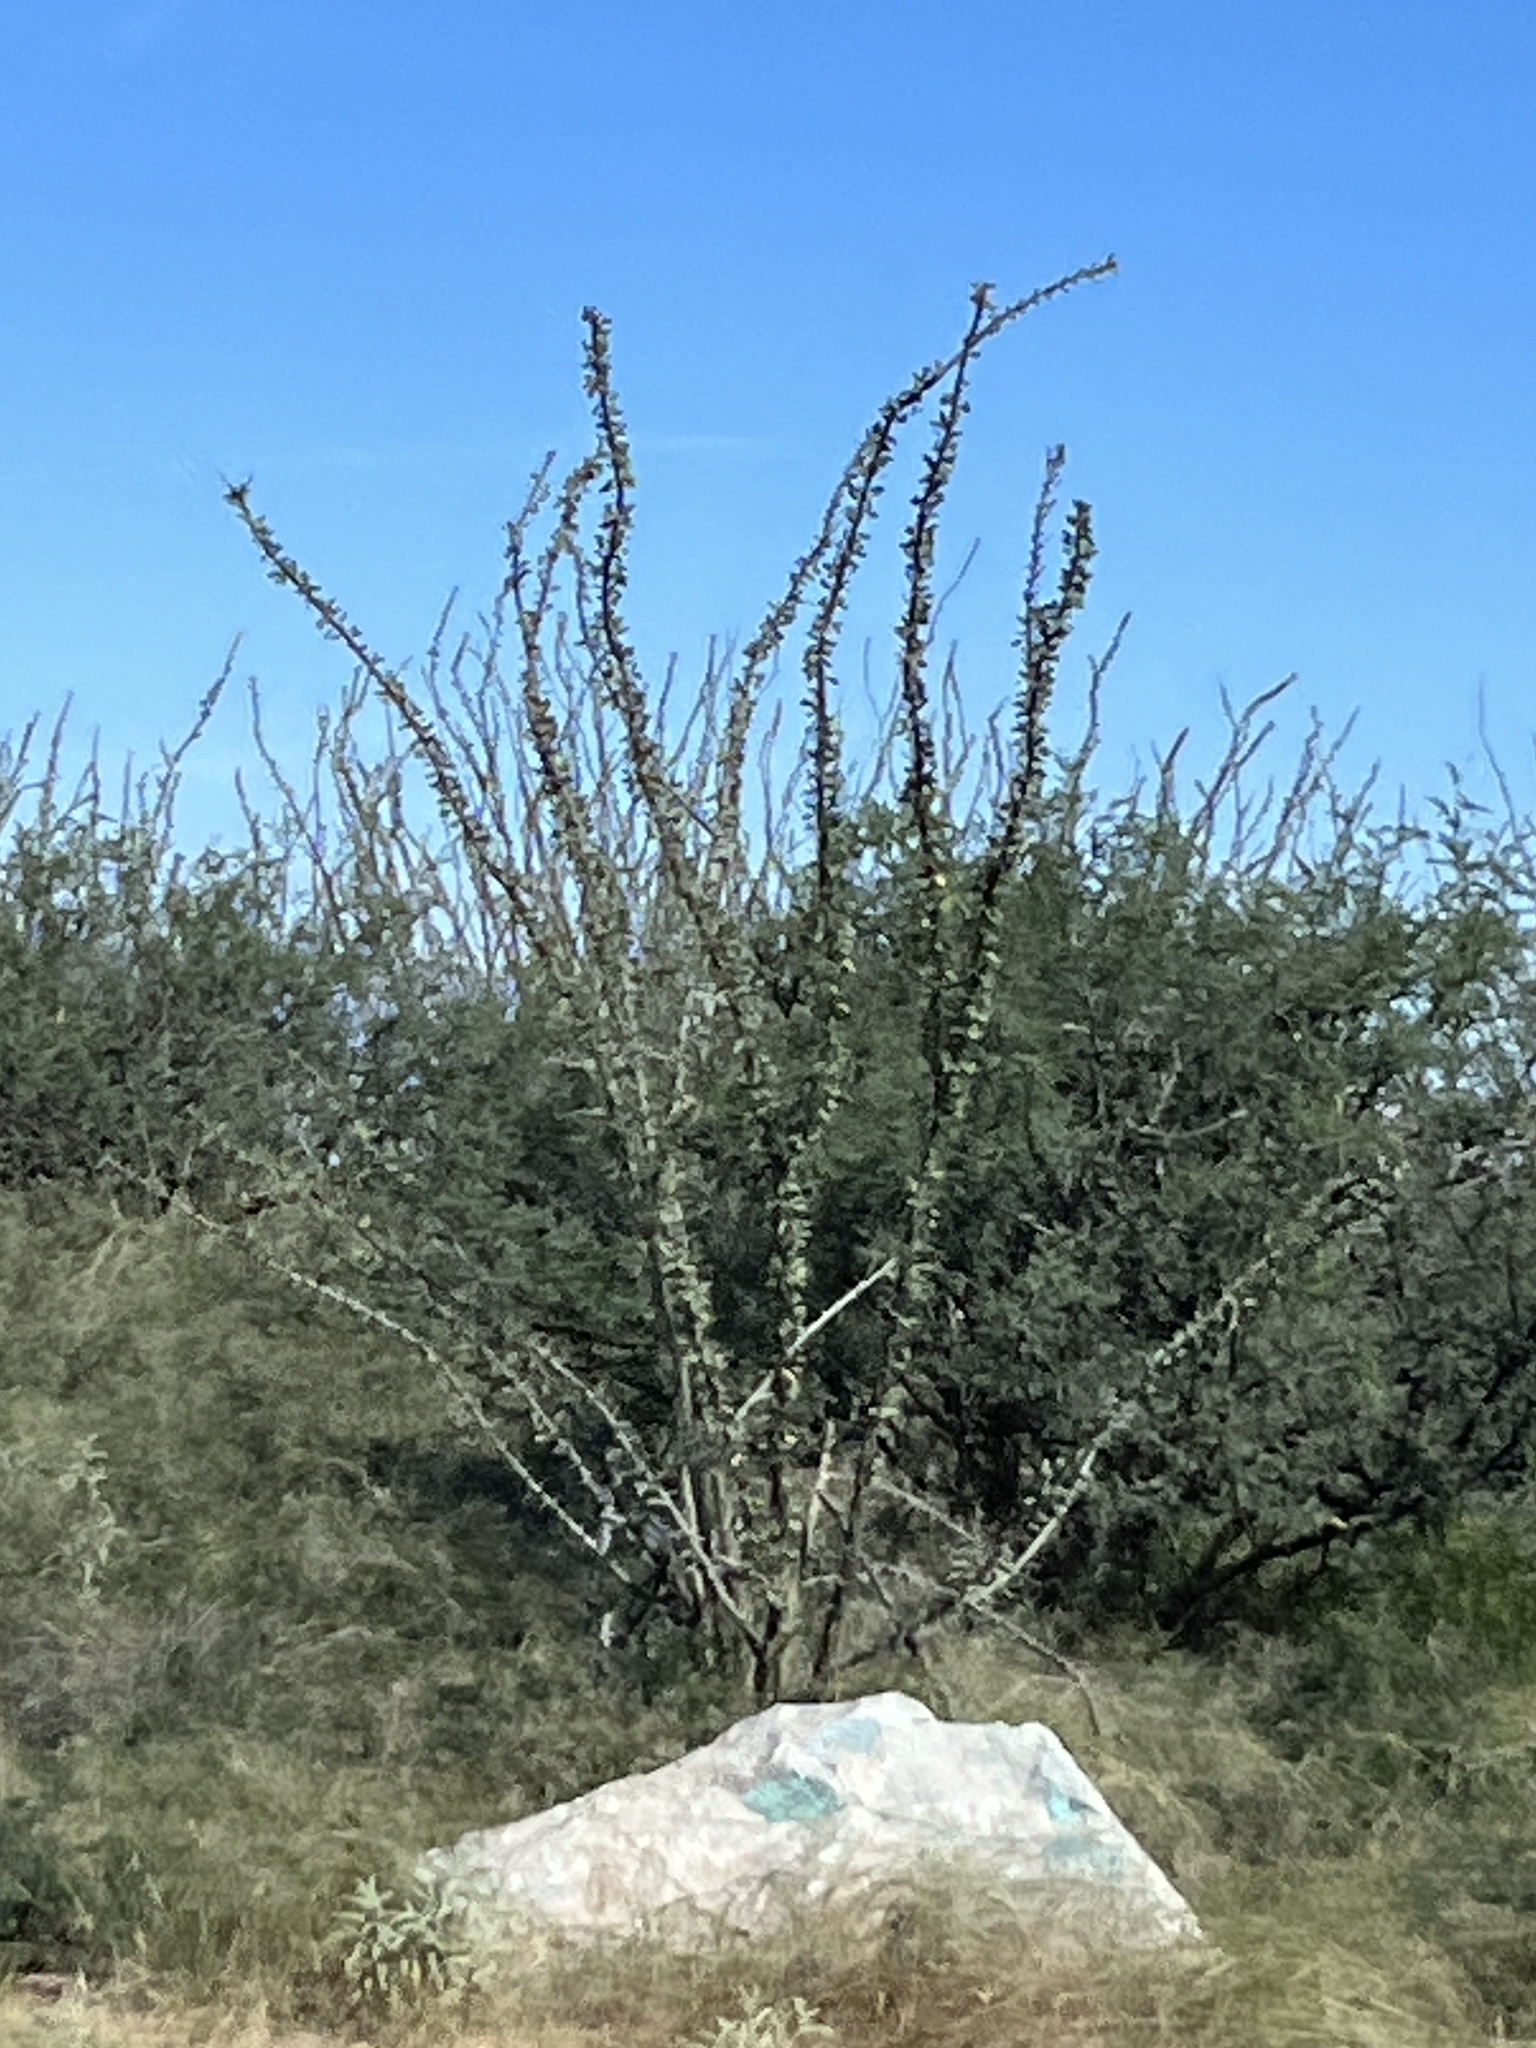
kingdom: Plantae
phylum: Tracheophyta
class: Magnoliopsida
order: Ericales
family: Fouquieriaceae
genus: Fouquieria
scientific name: Fouquieria splendens
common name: Vine-cactus
